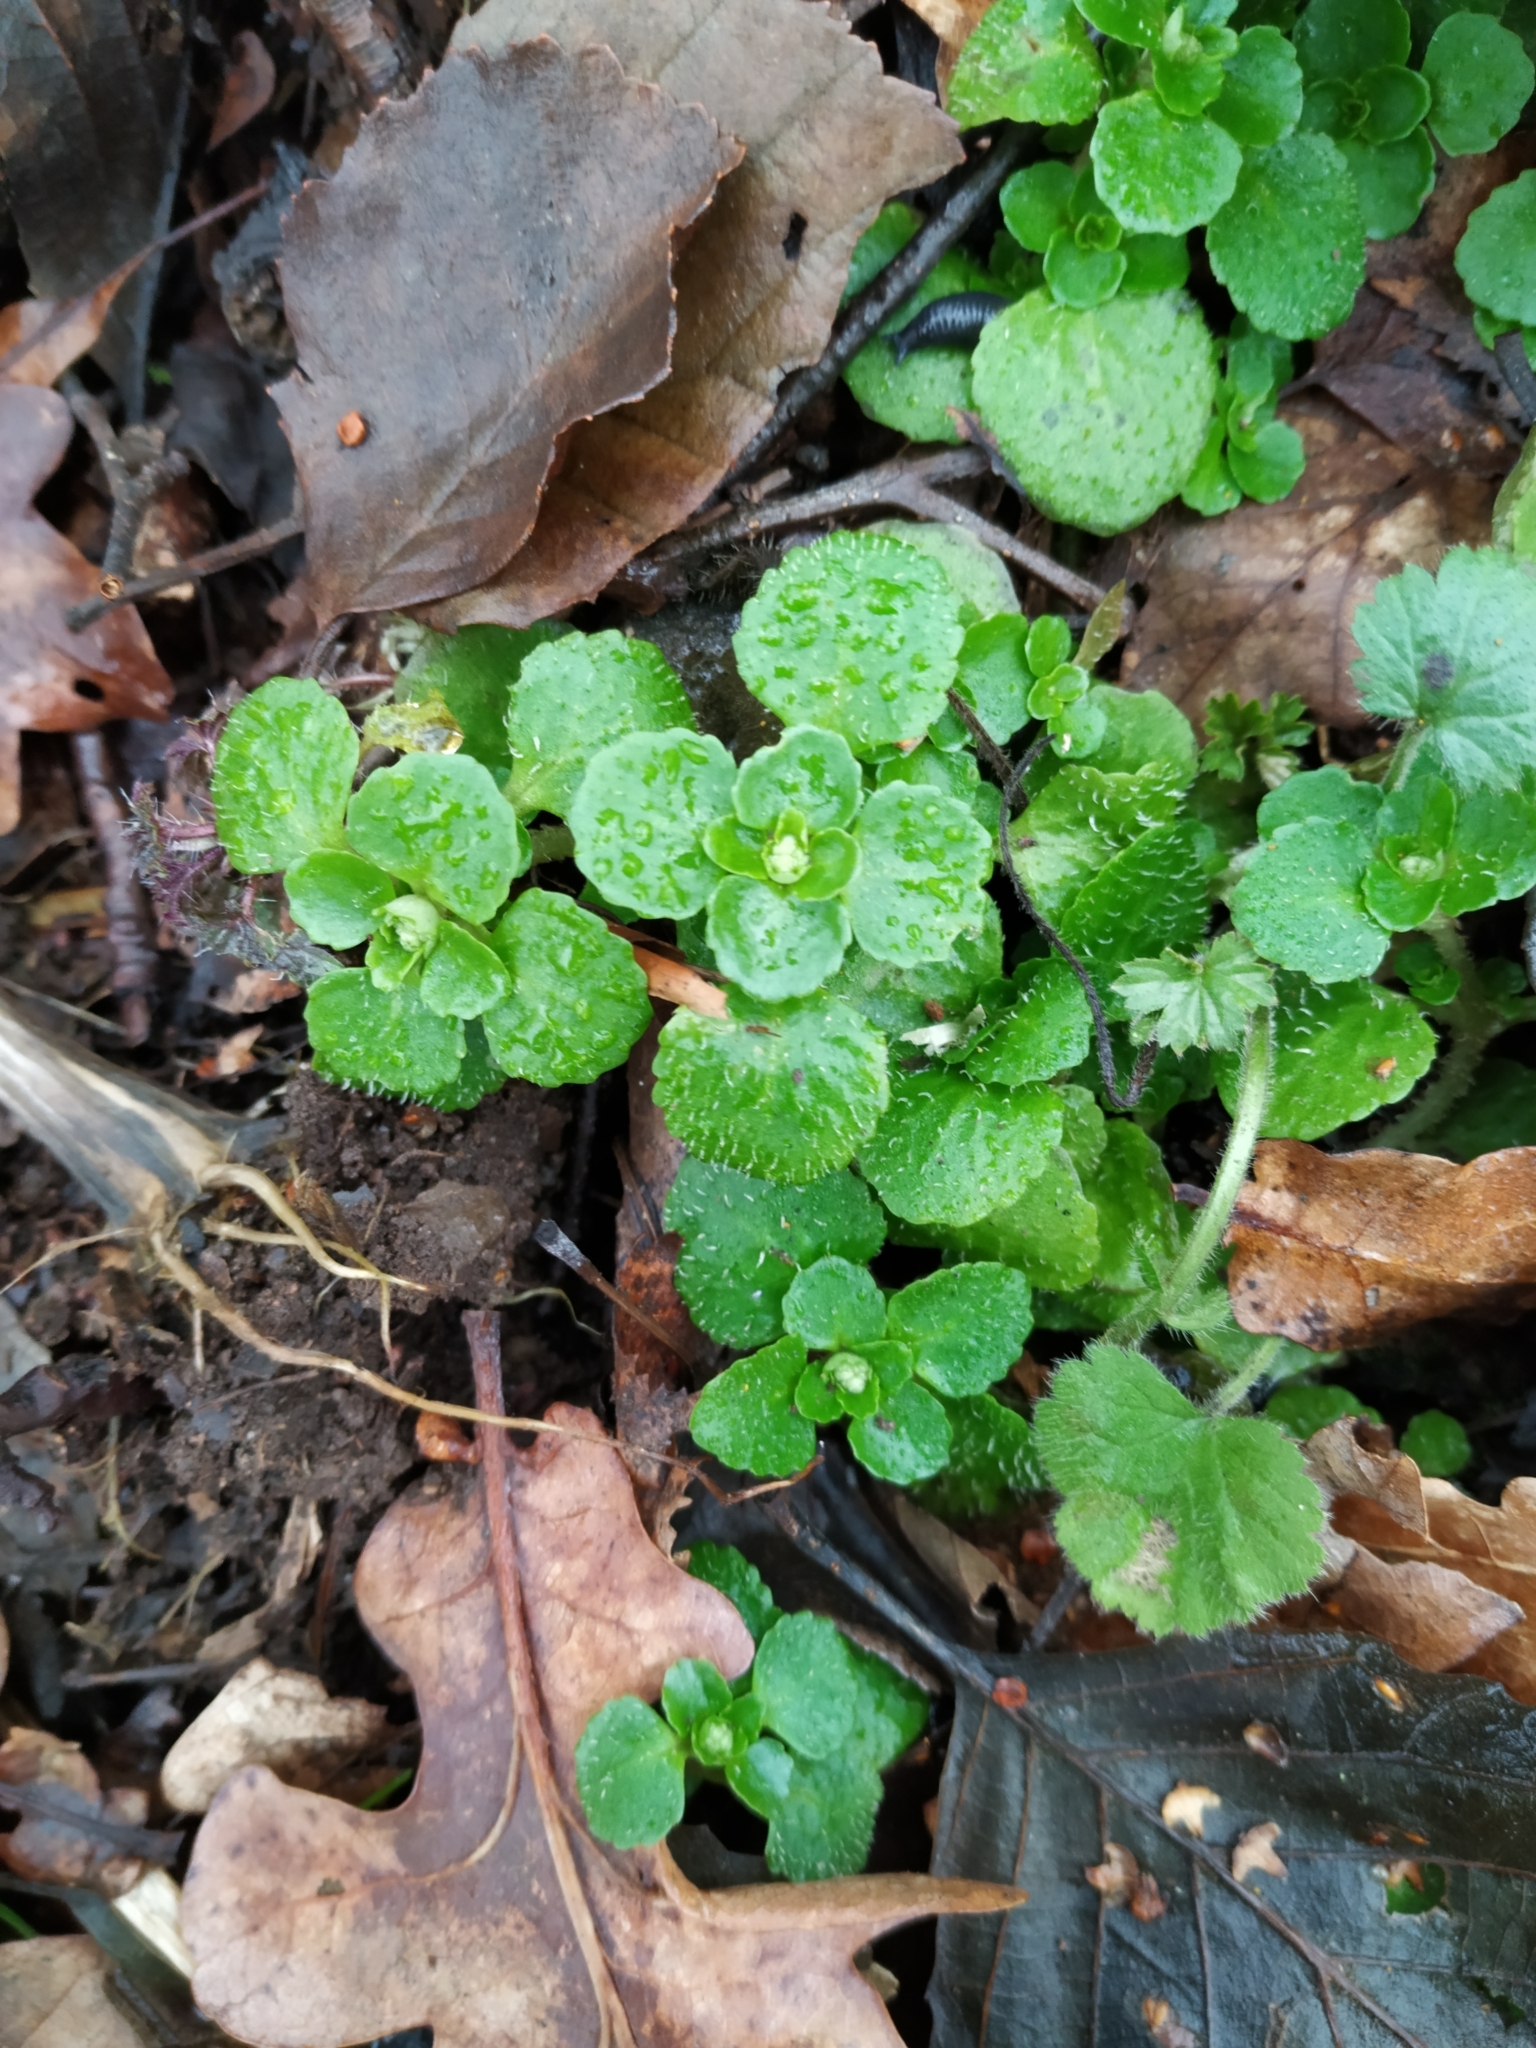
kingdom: Plantae
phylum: Tracheophyta
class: Magnoliopsida
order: Saxifragales
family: Saxifragaceae
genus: Chrysosplenium
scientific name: Chrysosplenium oppositifolium
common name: Opposite-leaved golden-saxifrage
